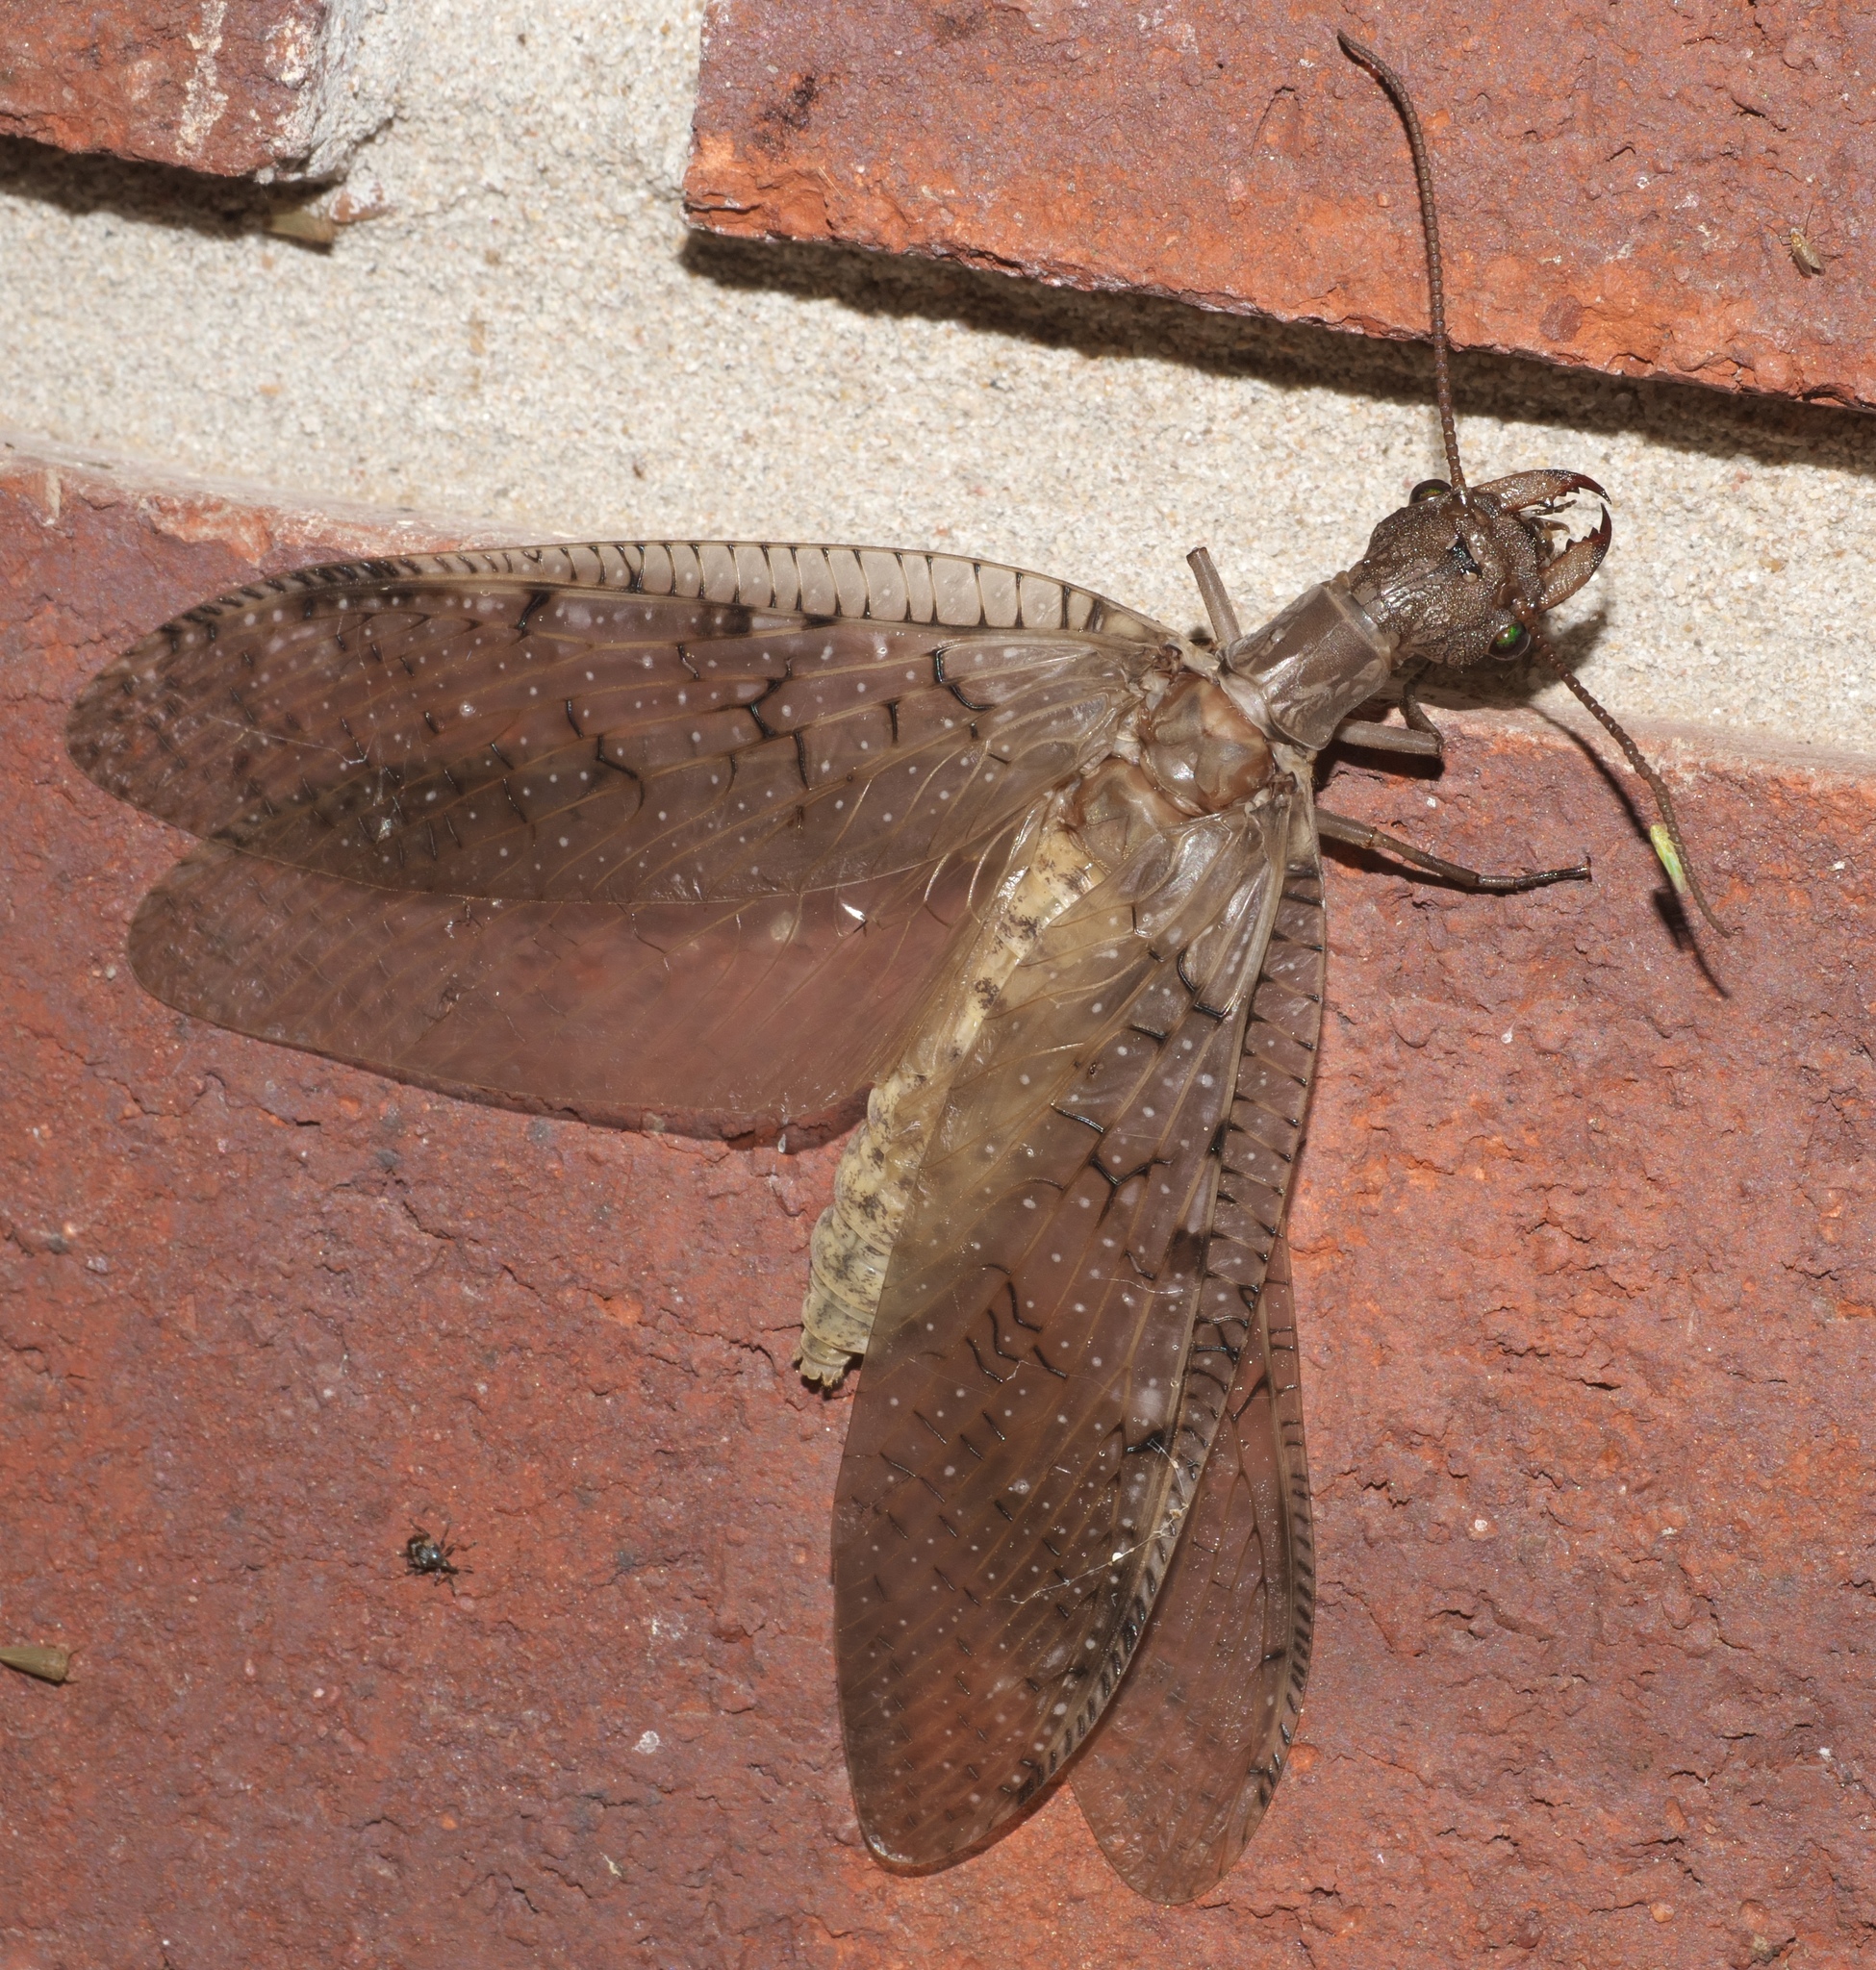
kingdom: Animalia
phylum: Arthropoda
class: Insecta
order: Megaloptera
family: Corydalidae
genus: Corydalus
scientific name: Corydalus cornutus
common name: Dobsonfly
